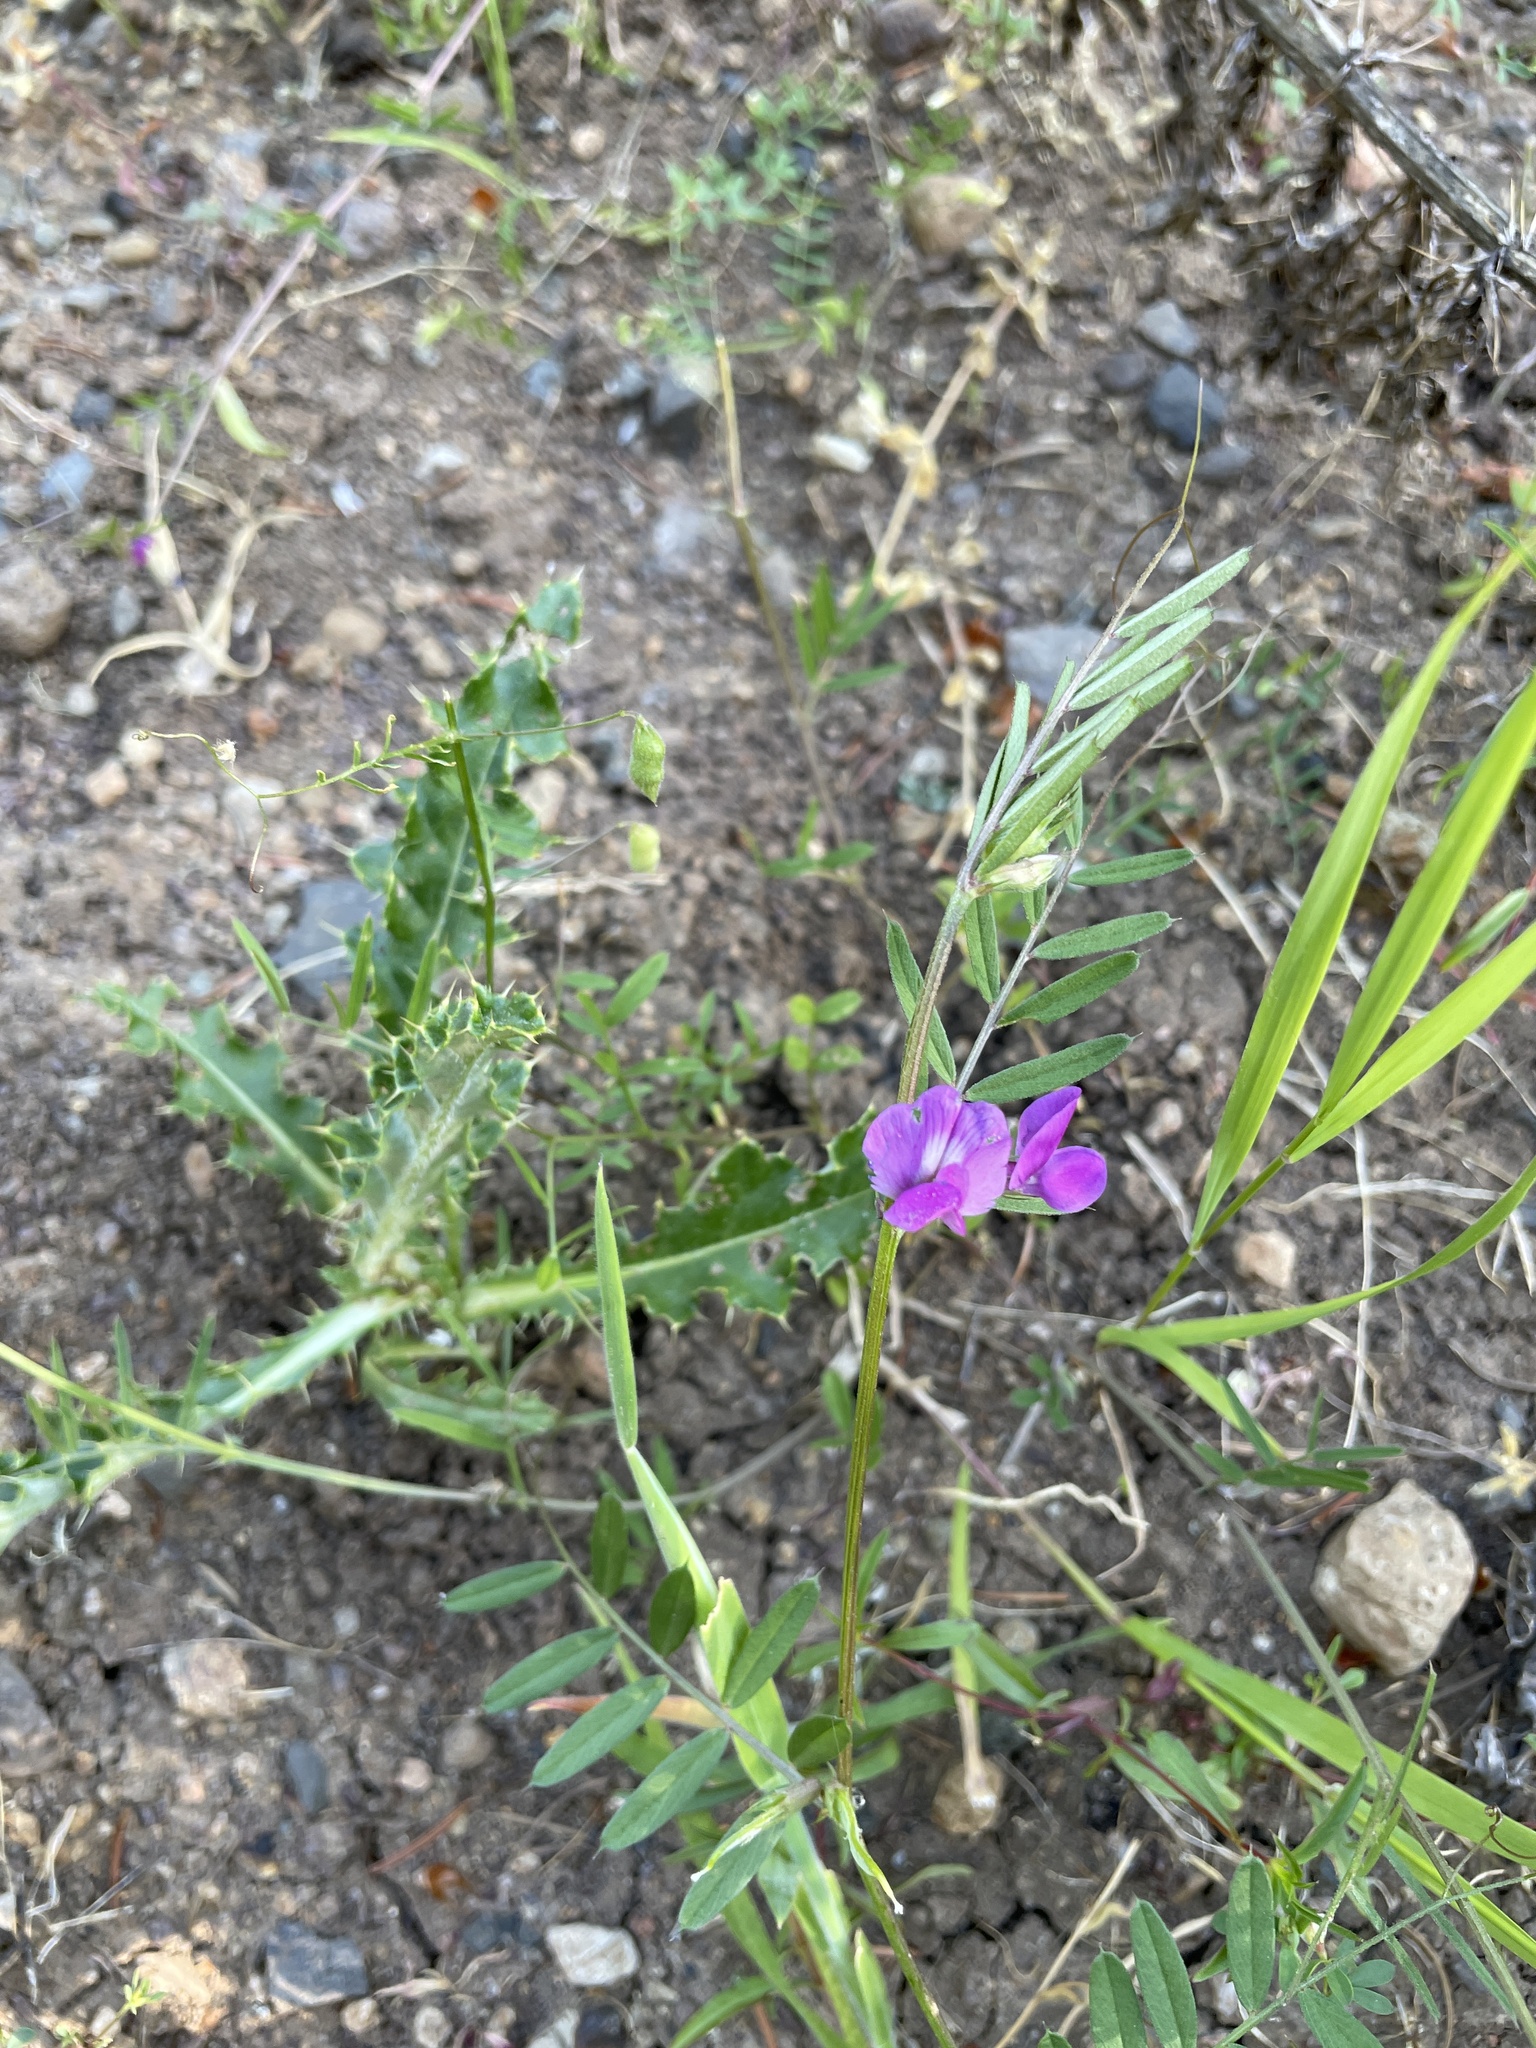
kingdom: Plantae
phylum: Tracheophyta
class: Magnoliopsida
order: Fabales
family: Fabaceae
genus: Vicia
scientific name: Vicia sativa
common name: Garden vetch
